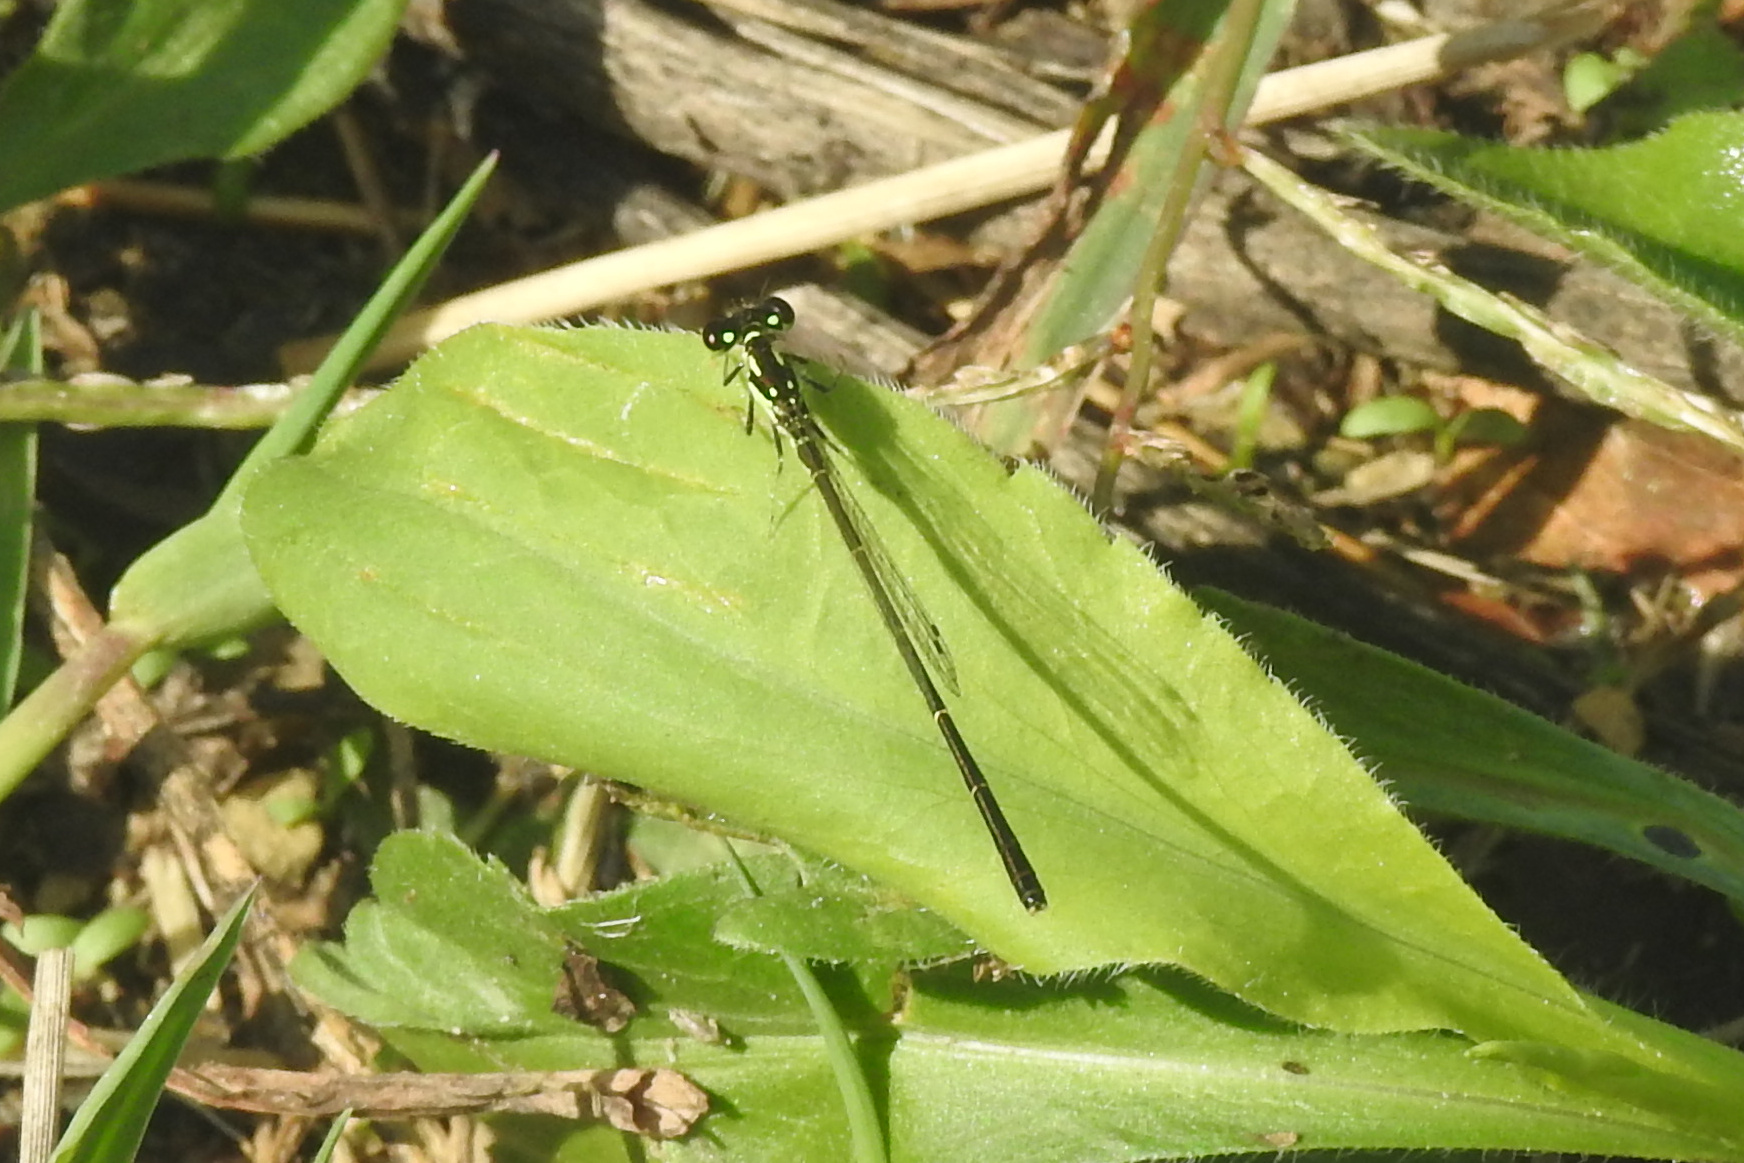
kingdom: Animalia
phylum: Arthropoda
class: Insecta
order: Odonata
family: Coenagrionidae
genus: Ischnura
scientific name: Ischnura posita
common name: Fragile forktail
